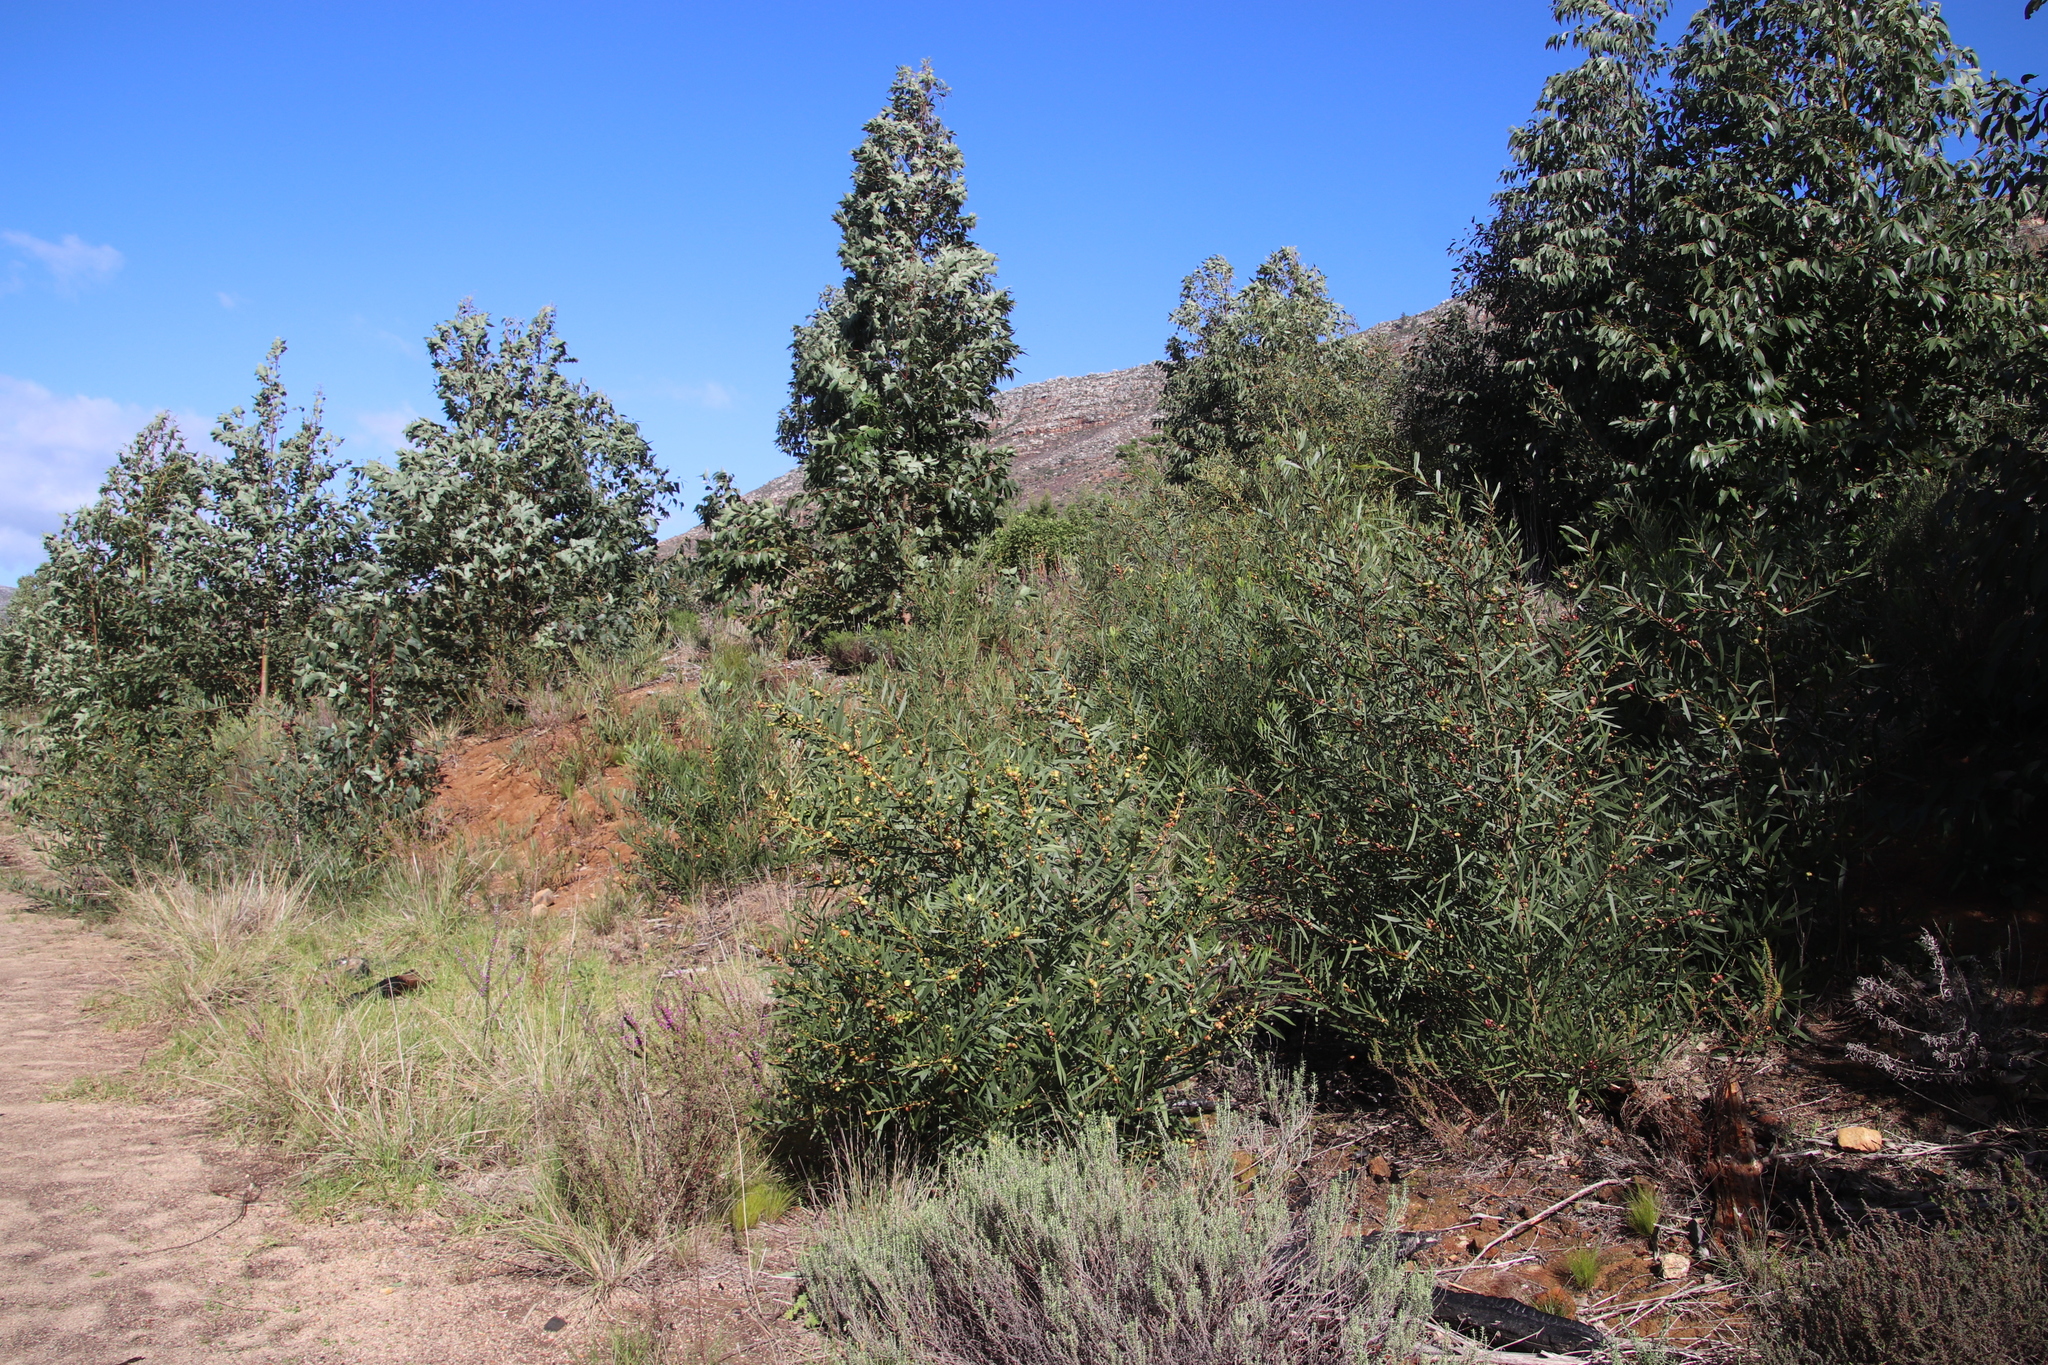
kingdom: Plantae
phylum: Tracheophyta
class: Magnoliopsida
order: Fabales
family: Fabaceae
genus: Acacia
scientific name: Acacia longifolia
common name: Sydney golden wattle
